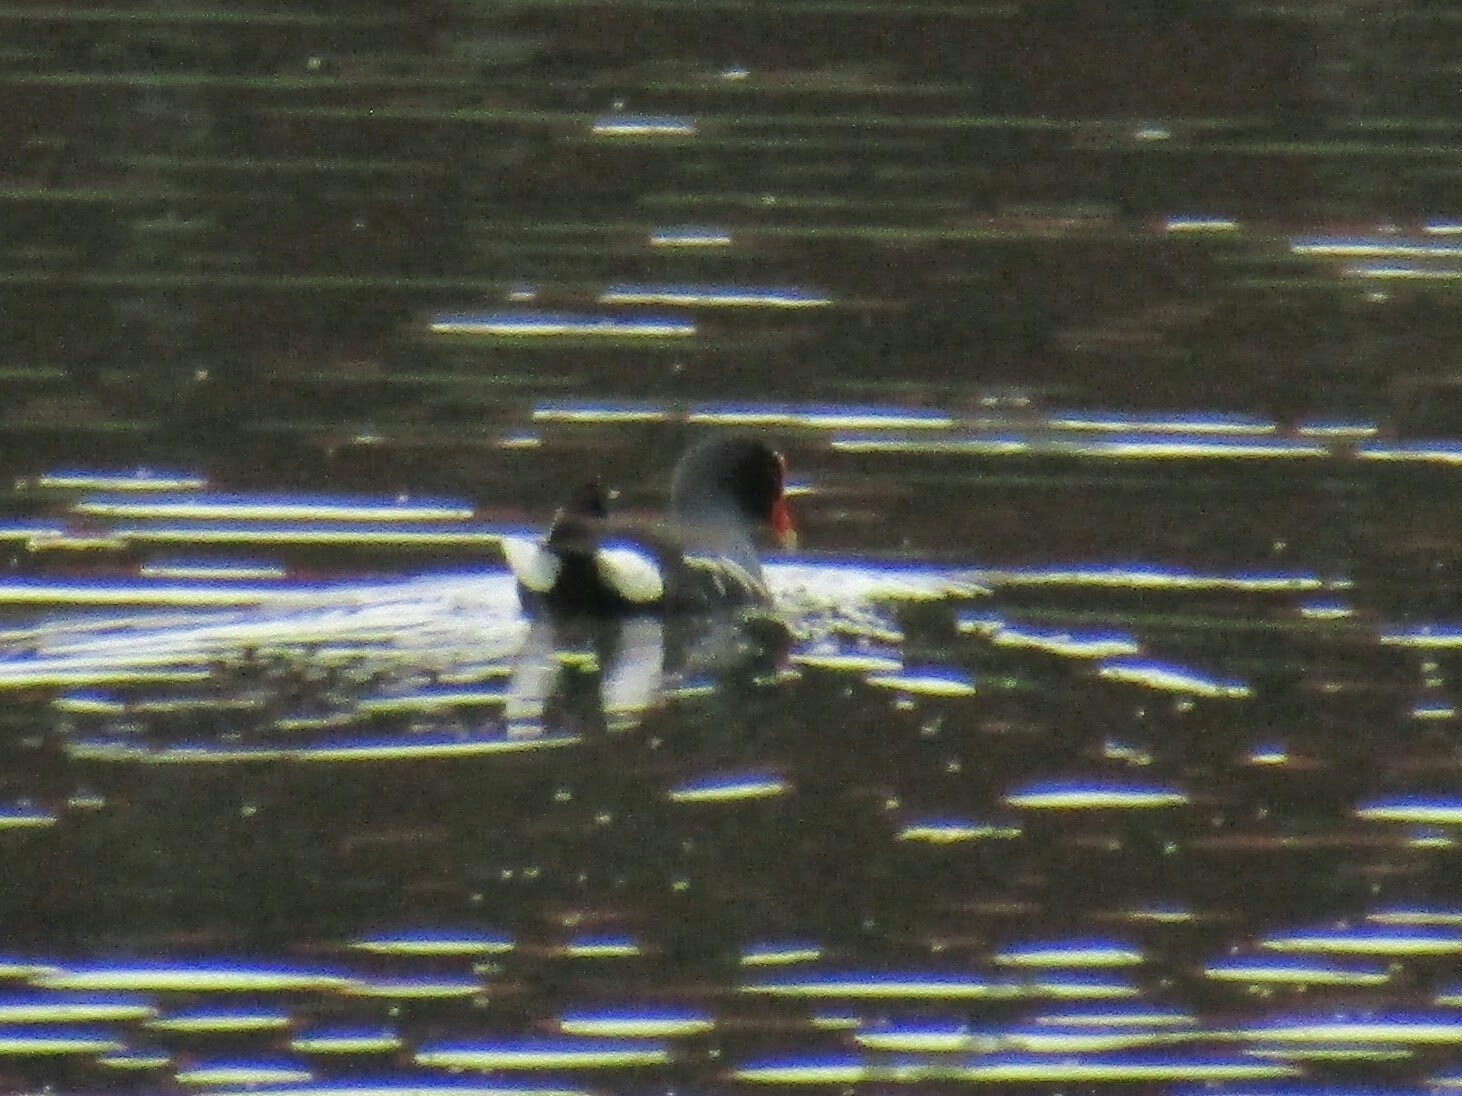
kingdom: Animalia
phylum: Chordata
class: Aves
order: Gruiformes
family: Rallidae
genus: Gallinula
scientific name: Gallinula chloropus
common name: Common moorhen
